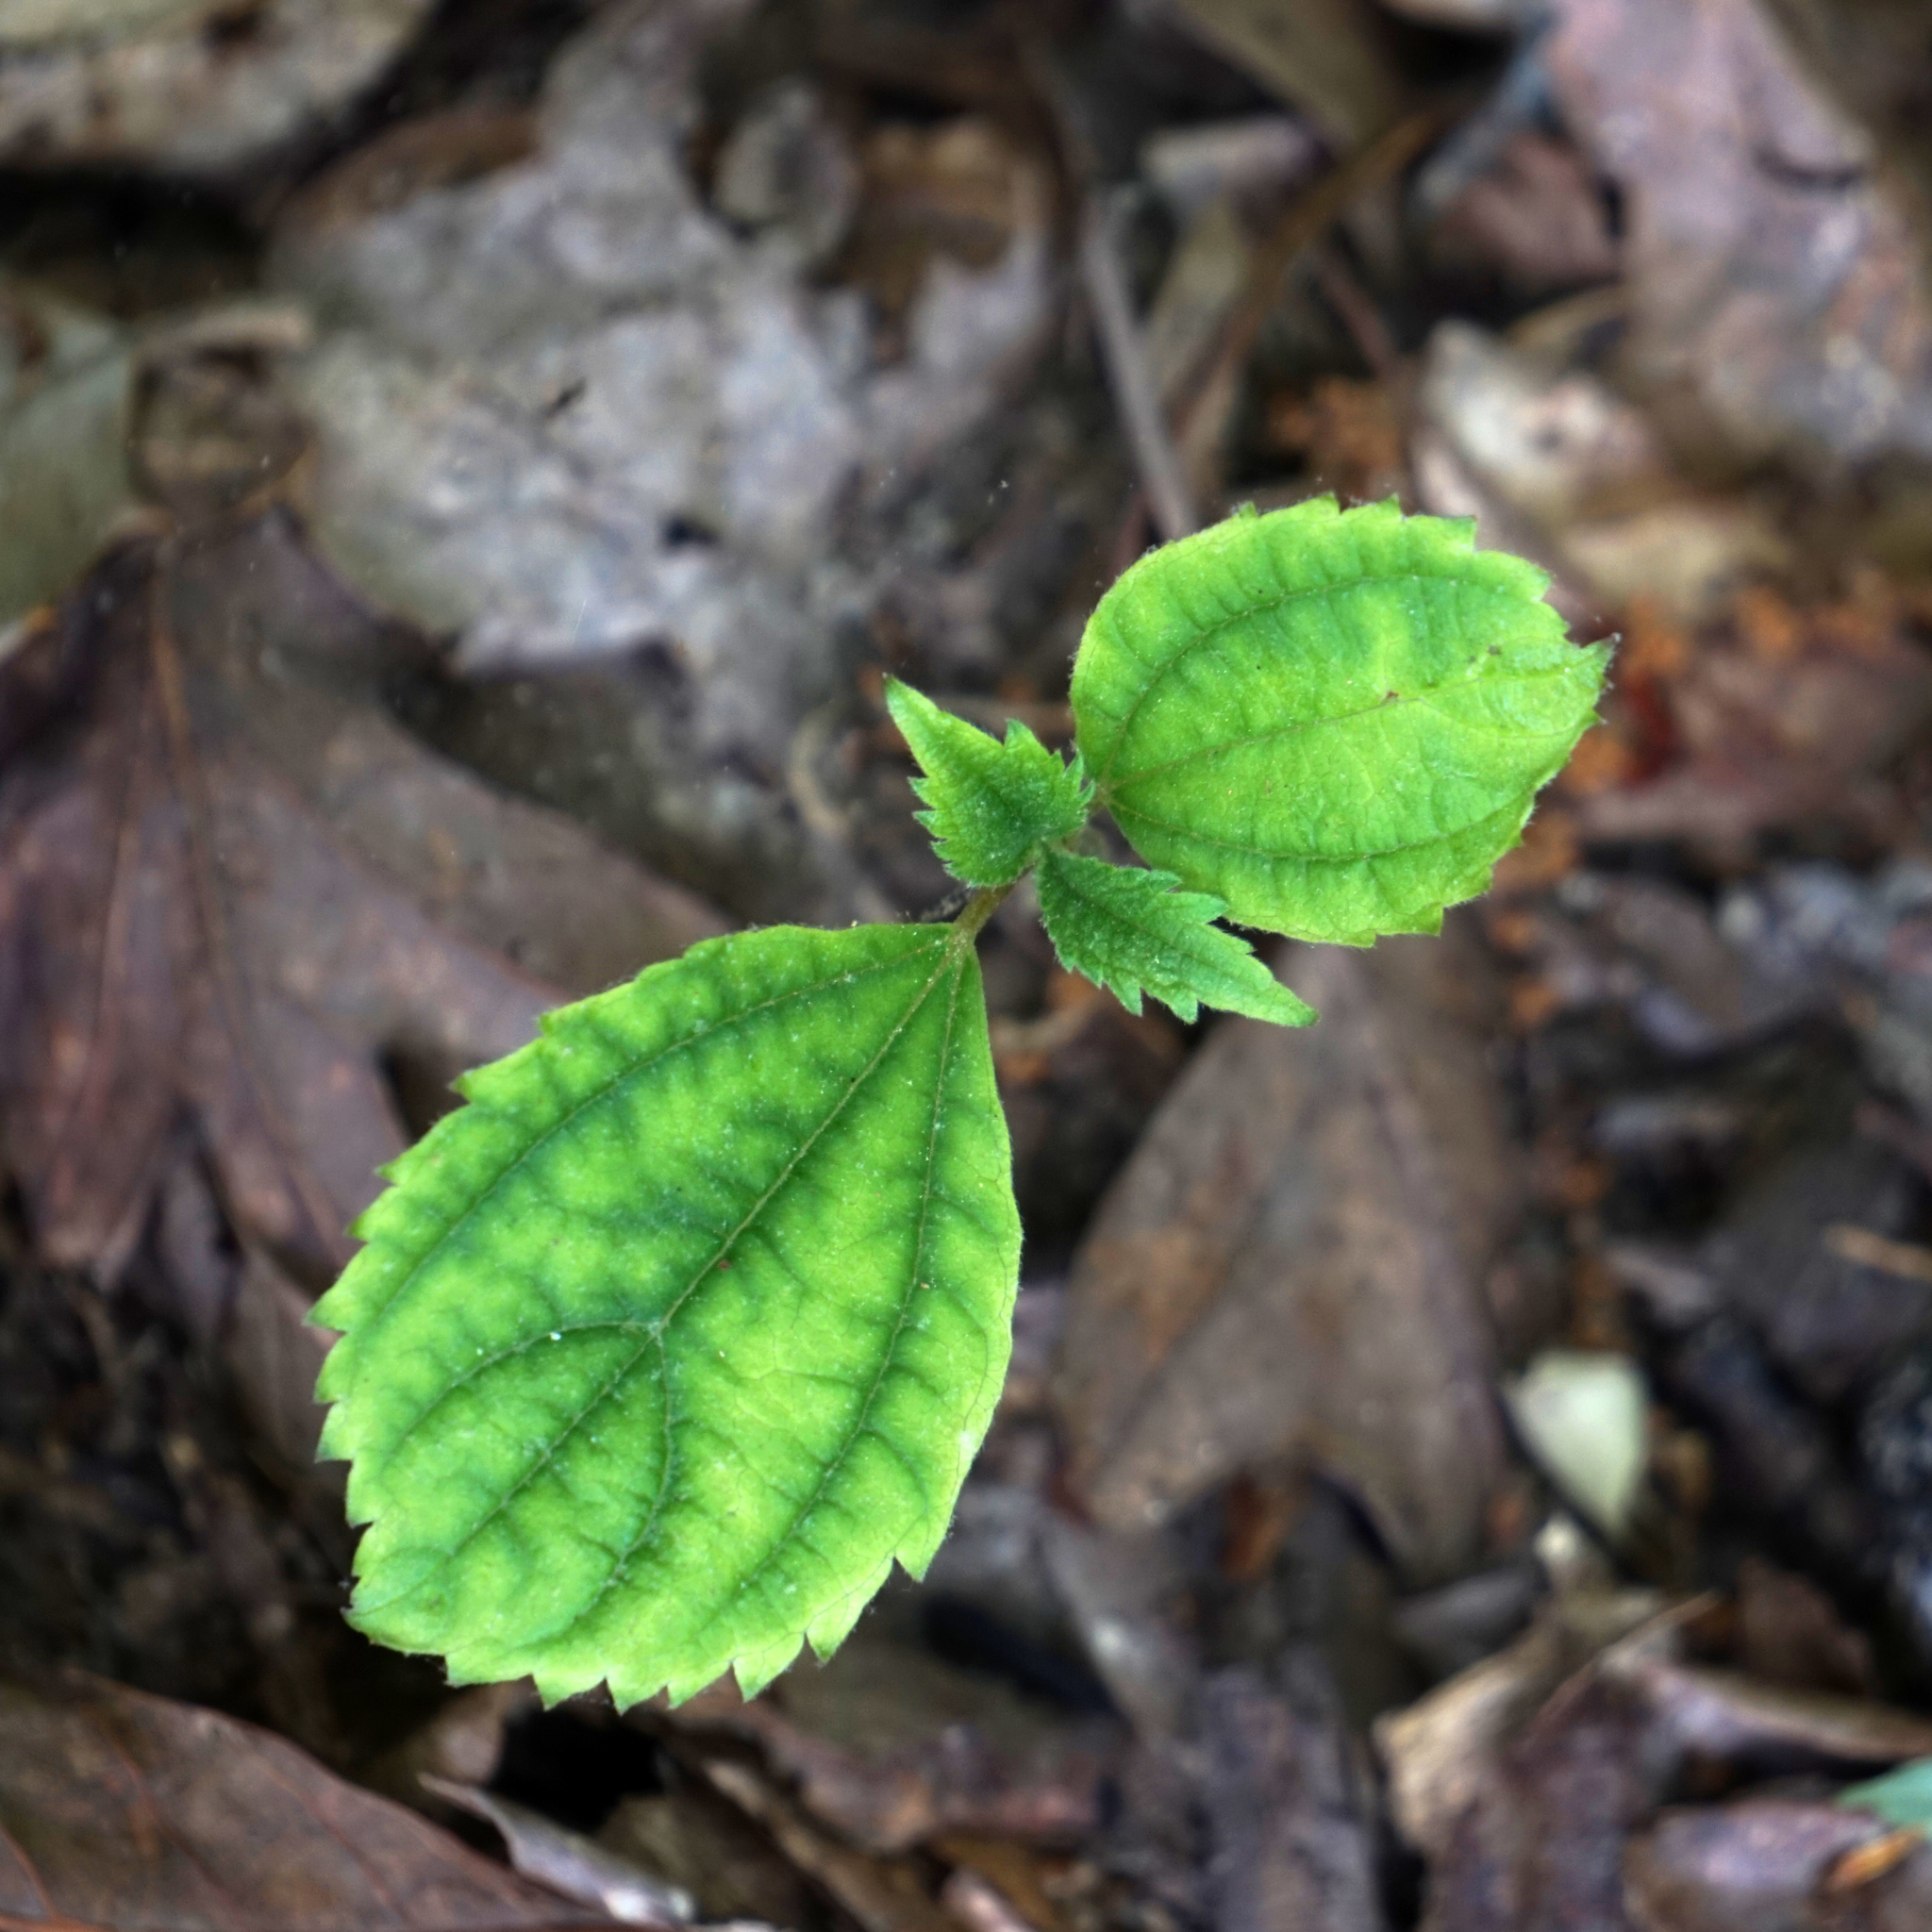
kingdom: Plantae
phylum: Tracheophyta
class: Magnoliopsida
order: Lamiales
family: Lamiaceae
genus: Collinsonia
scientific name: Collinsonia canadensis
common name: Northern horsebalm
